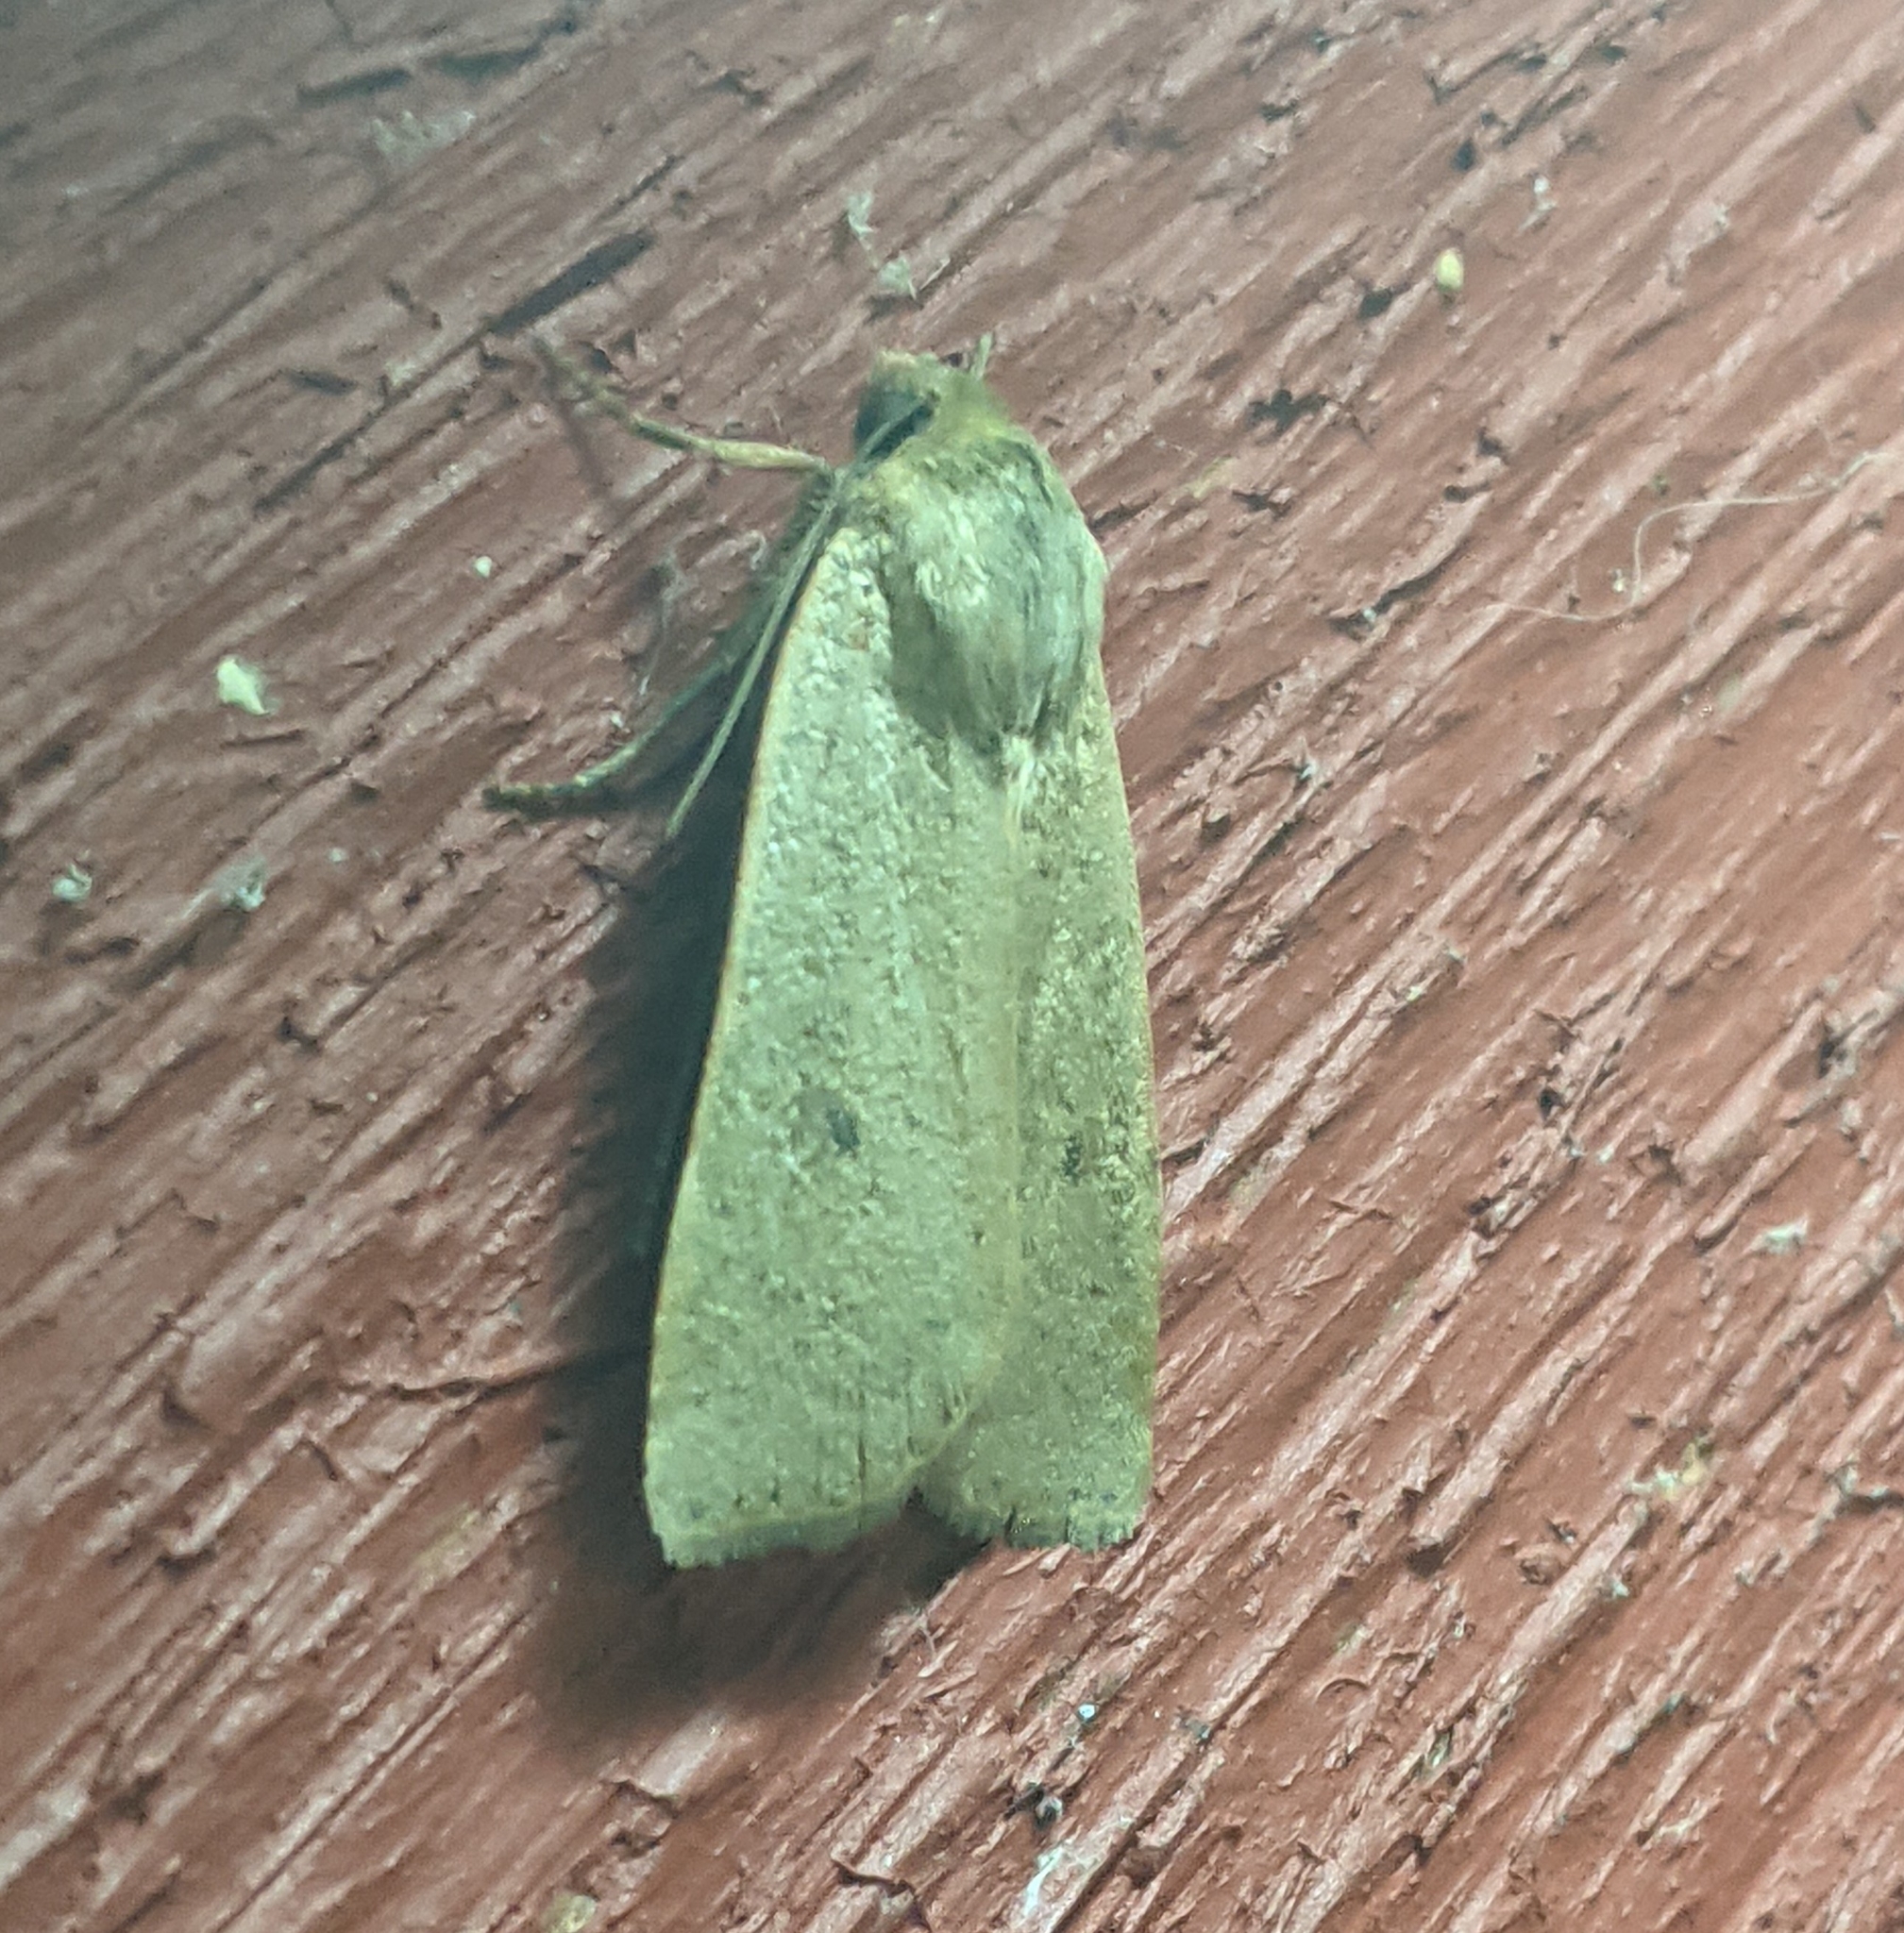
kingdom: Animalia
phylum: Arthropoda
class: Insecta
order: Lepidoptera
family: Noctuidae
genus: Noctua
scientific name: Noctua comes
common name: Lesser yellow underwing
